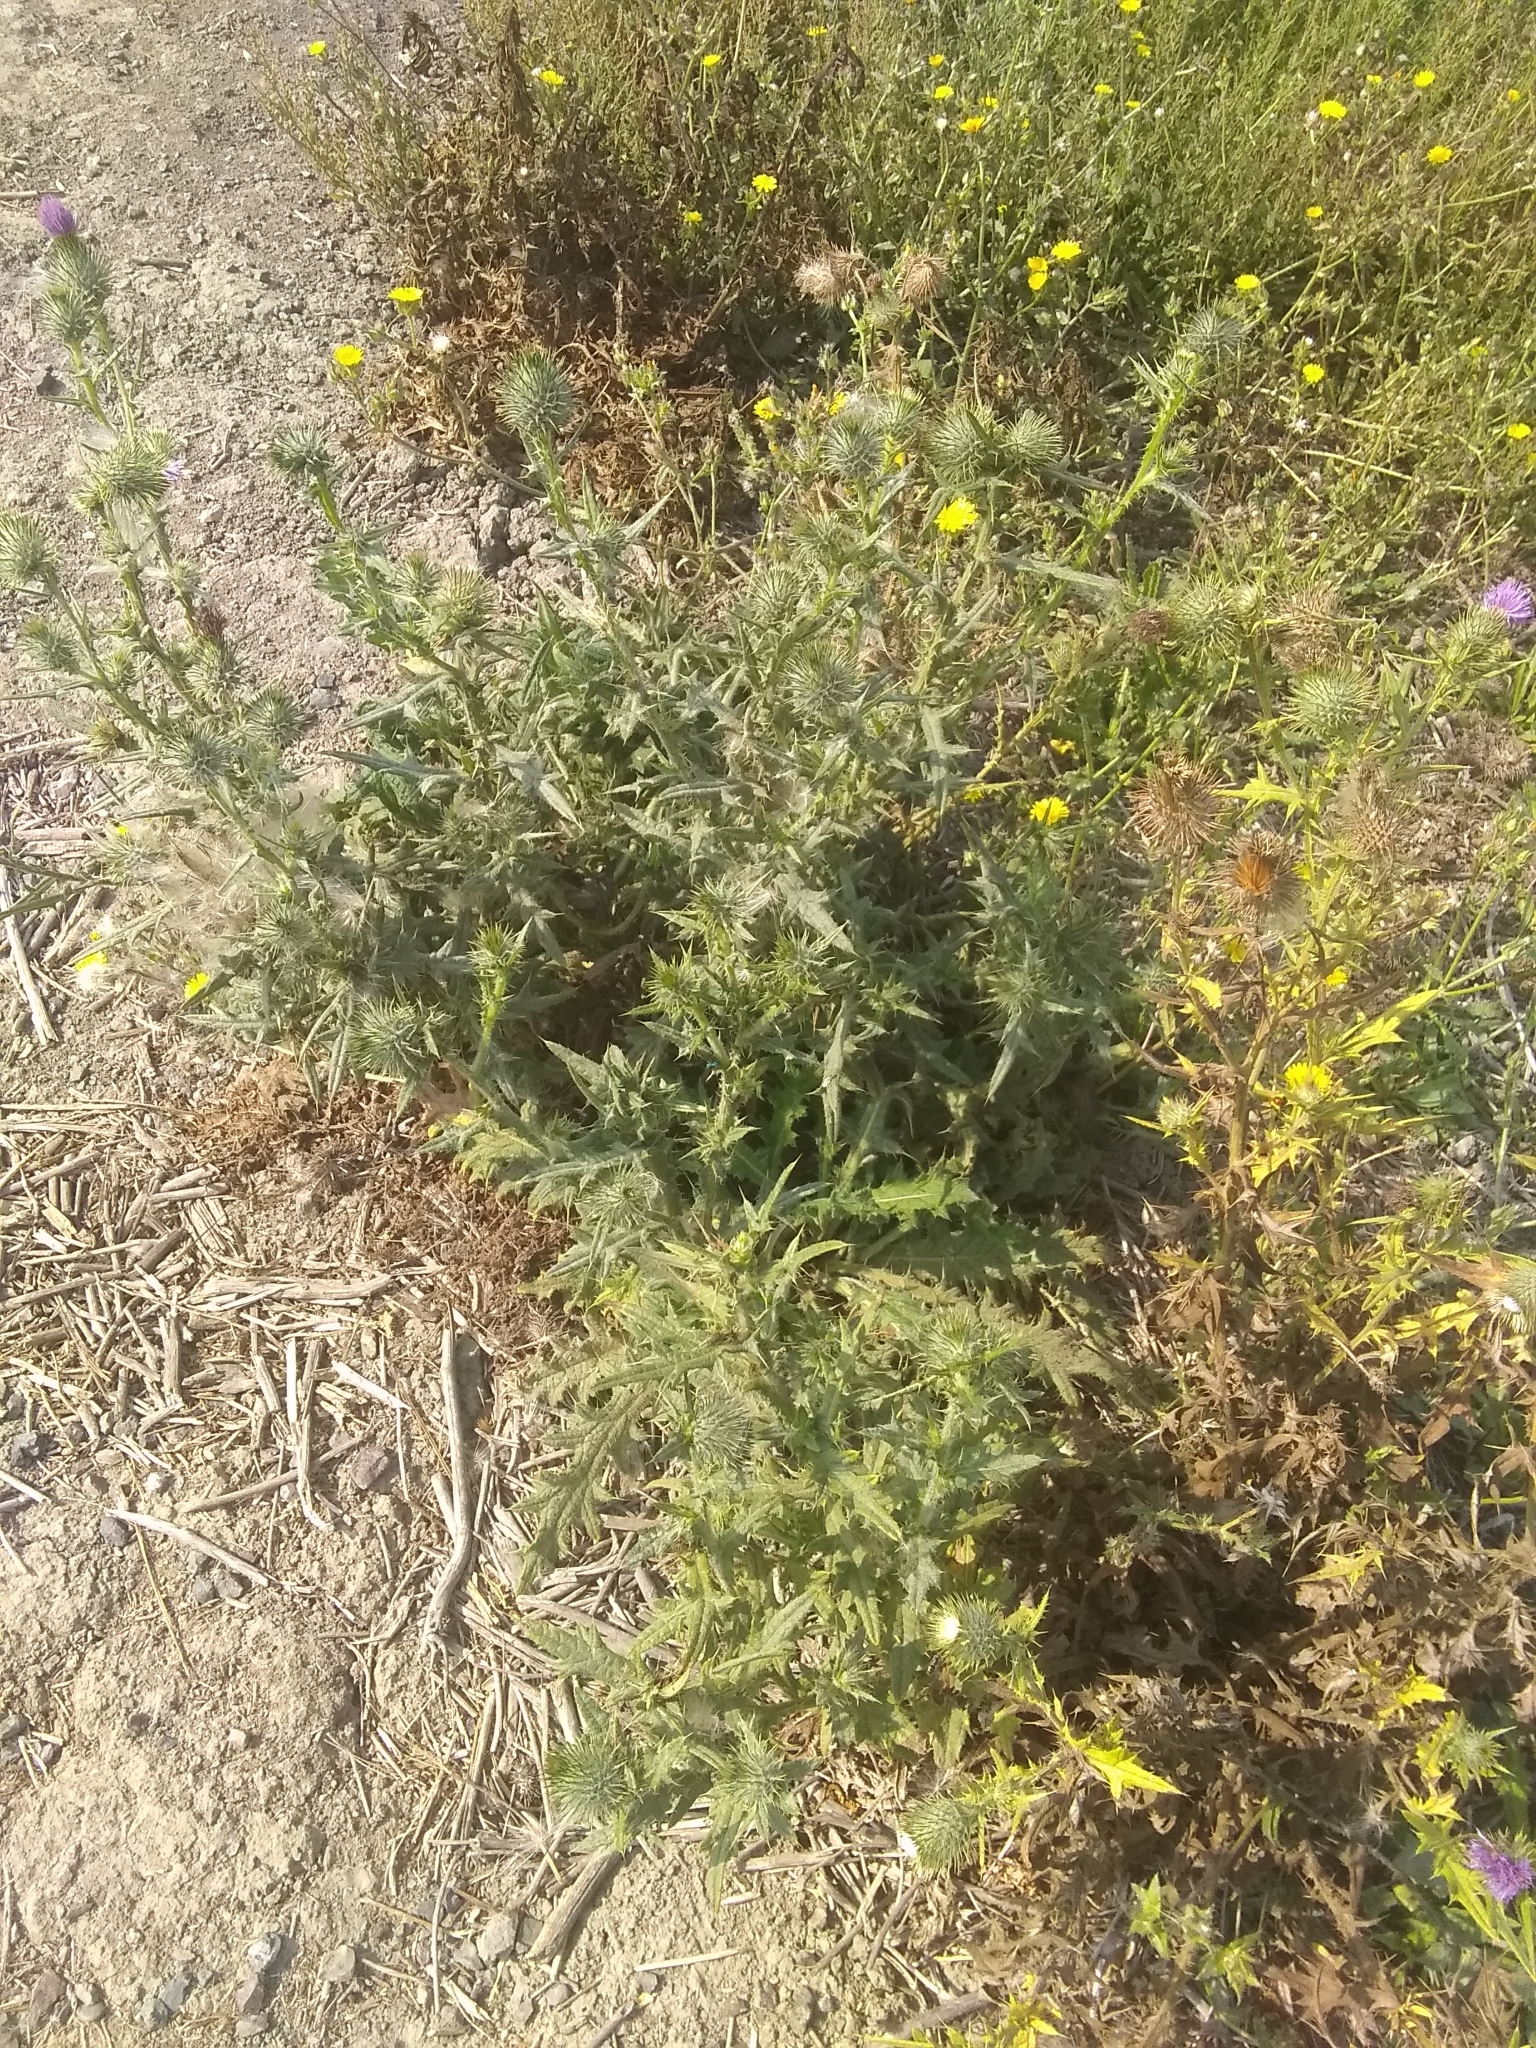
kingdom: Plantae
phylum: Tracheophyta
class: Magnoliopsida
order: Asterales
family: Asteraceae
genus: Cirsium
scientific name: Cirsium vulgare
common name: Bull thistle
